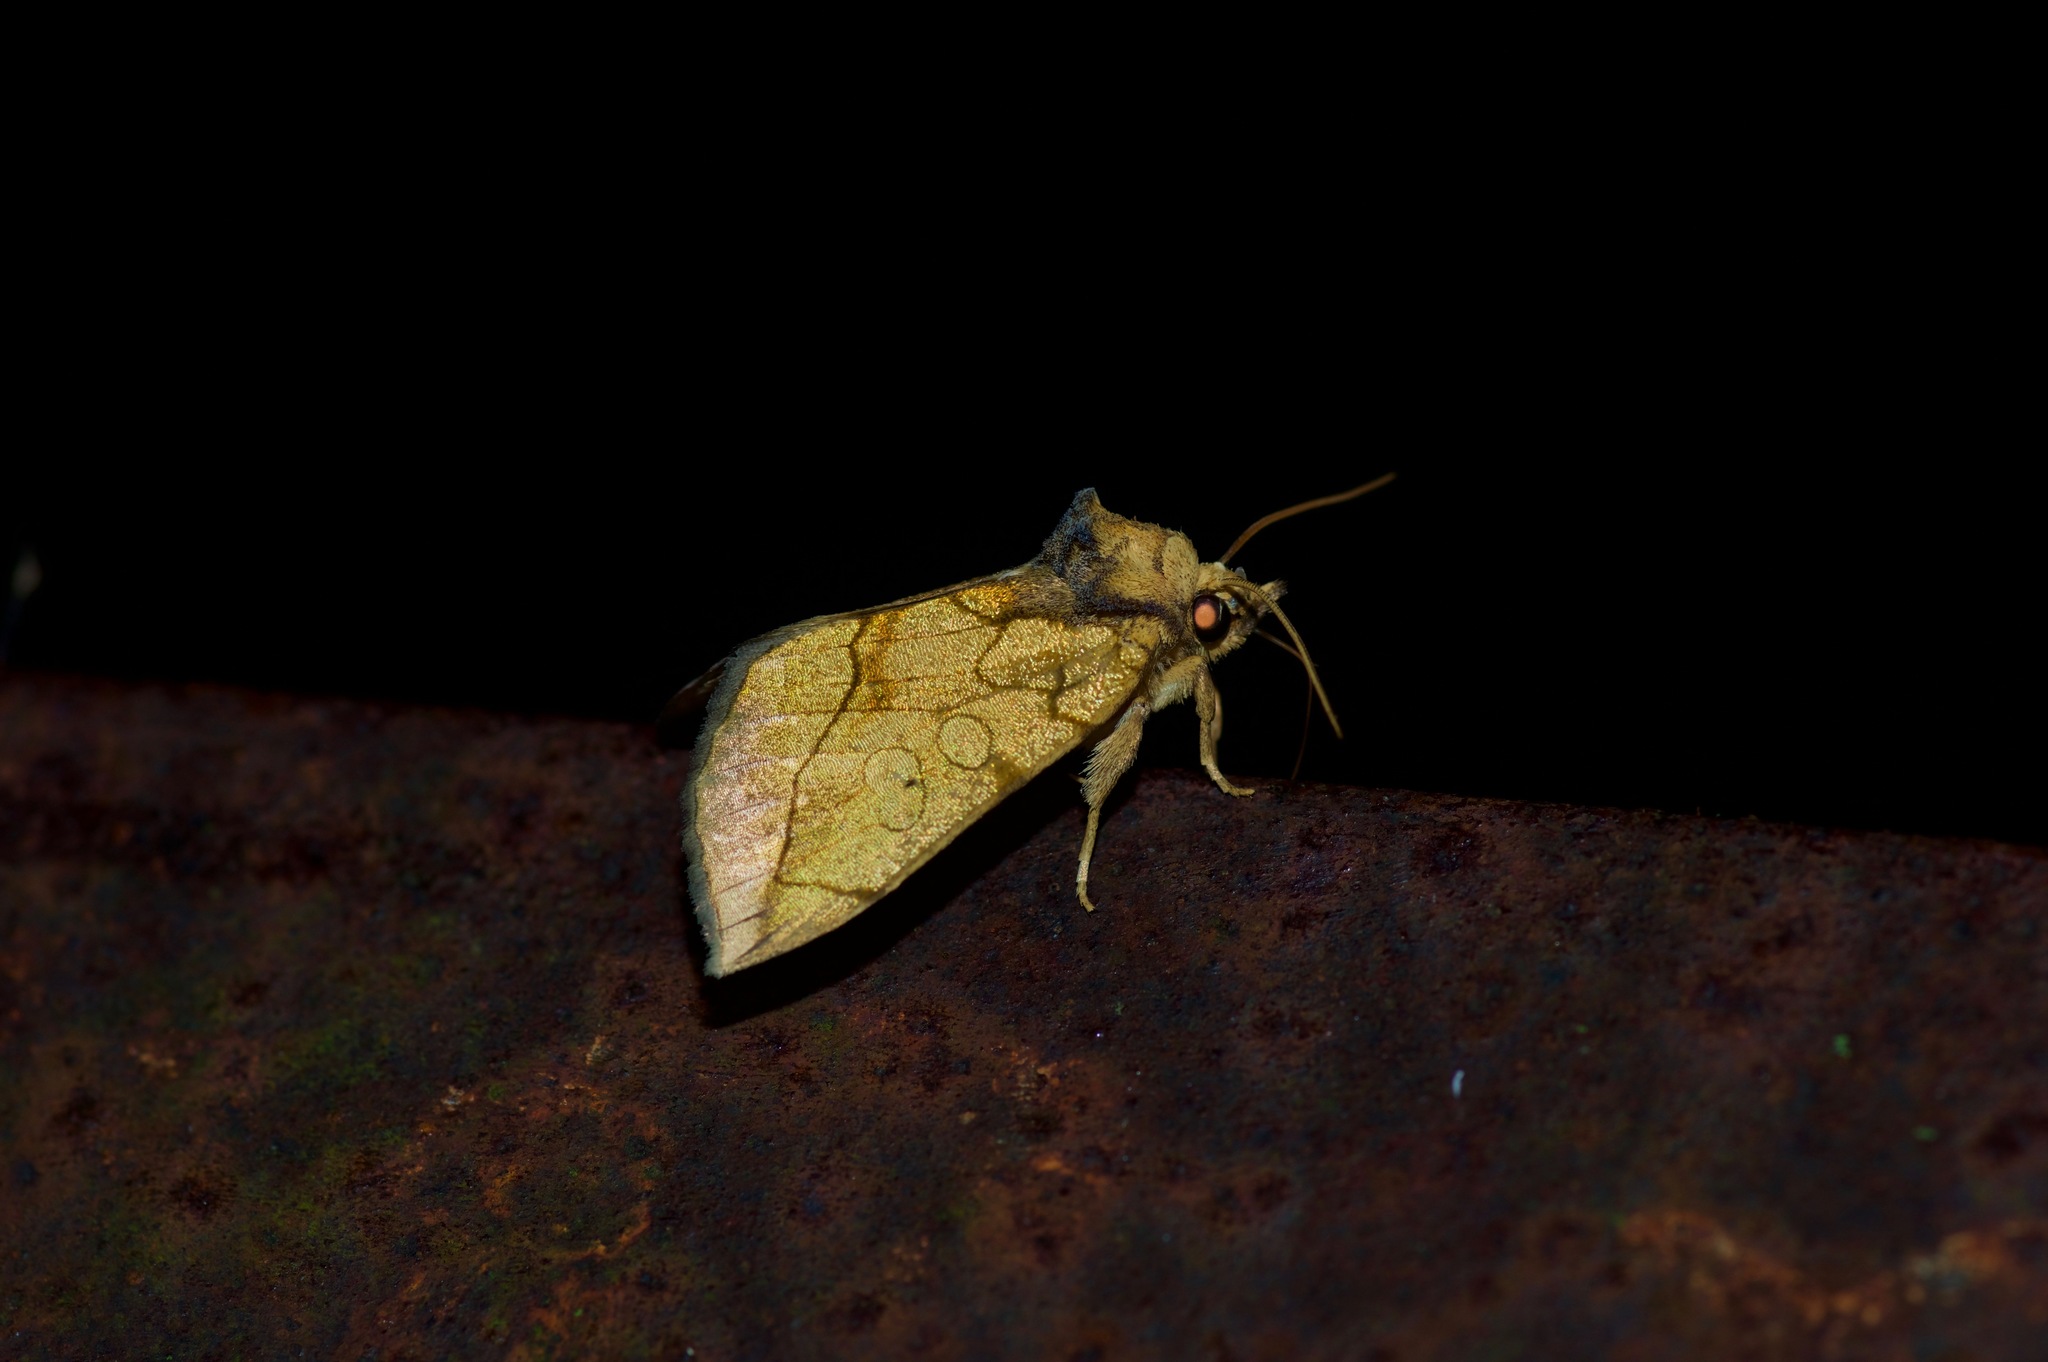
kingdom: Animalia
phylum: Arthropoda
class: Insecta
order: Lepidoptera
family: Noctuidae
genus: Basilodes
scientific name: Basilodes pepita
